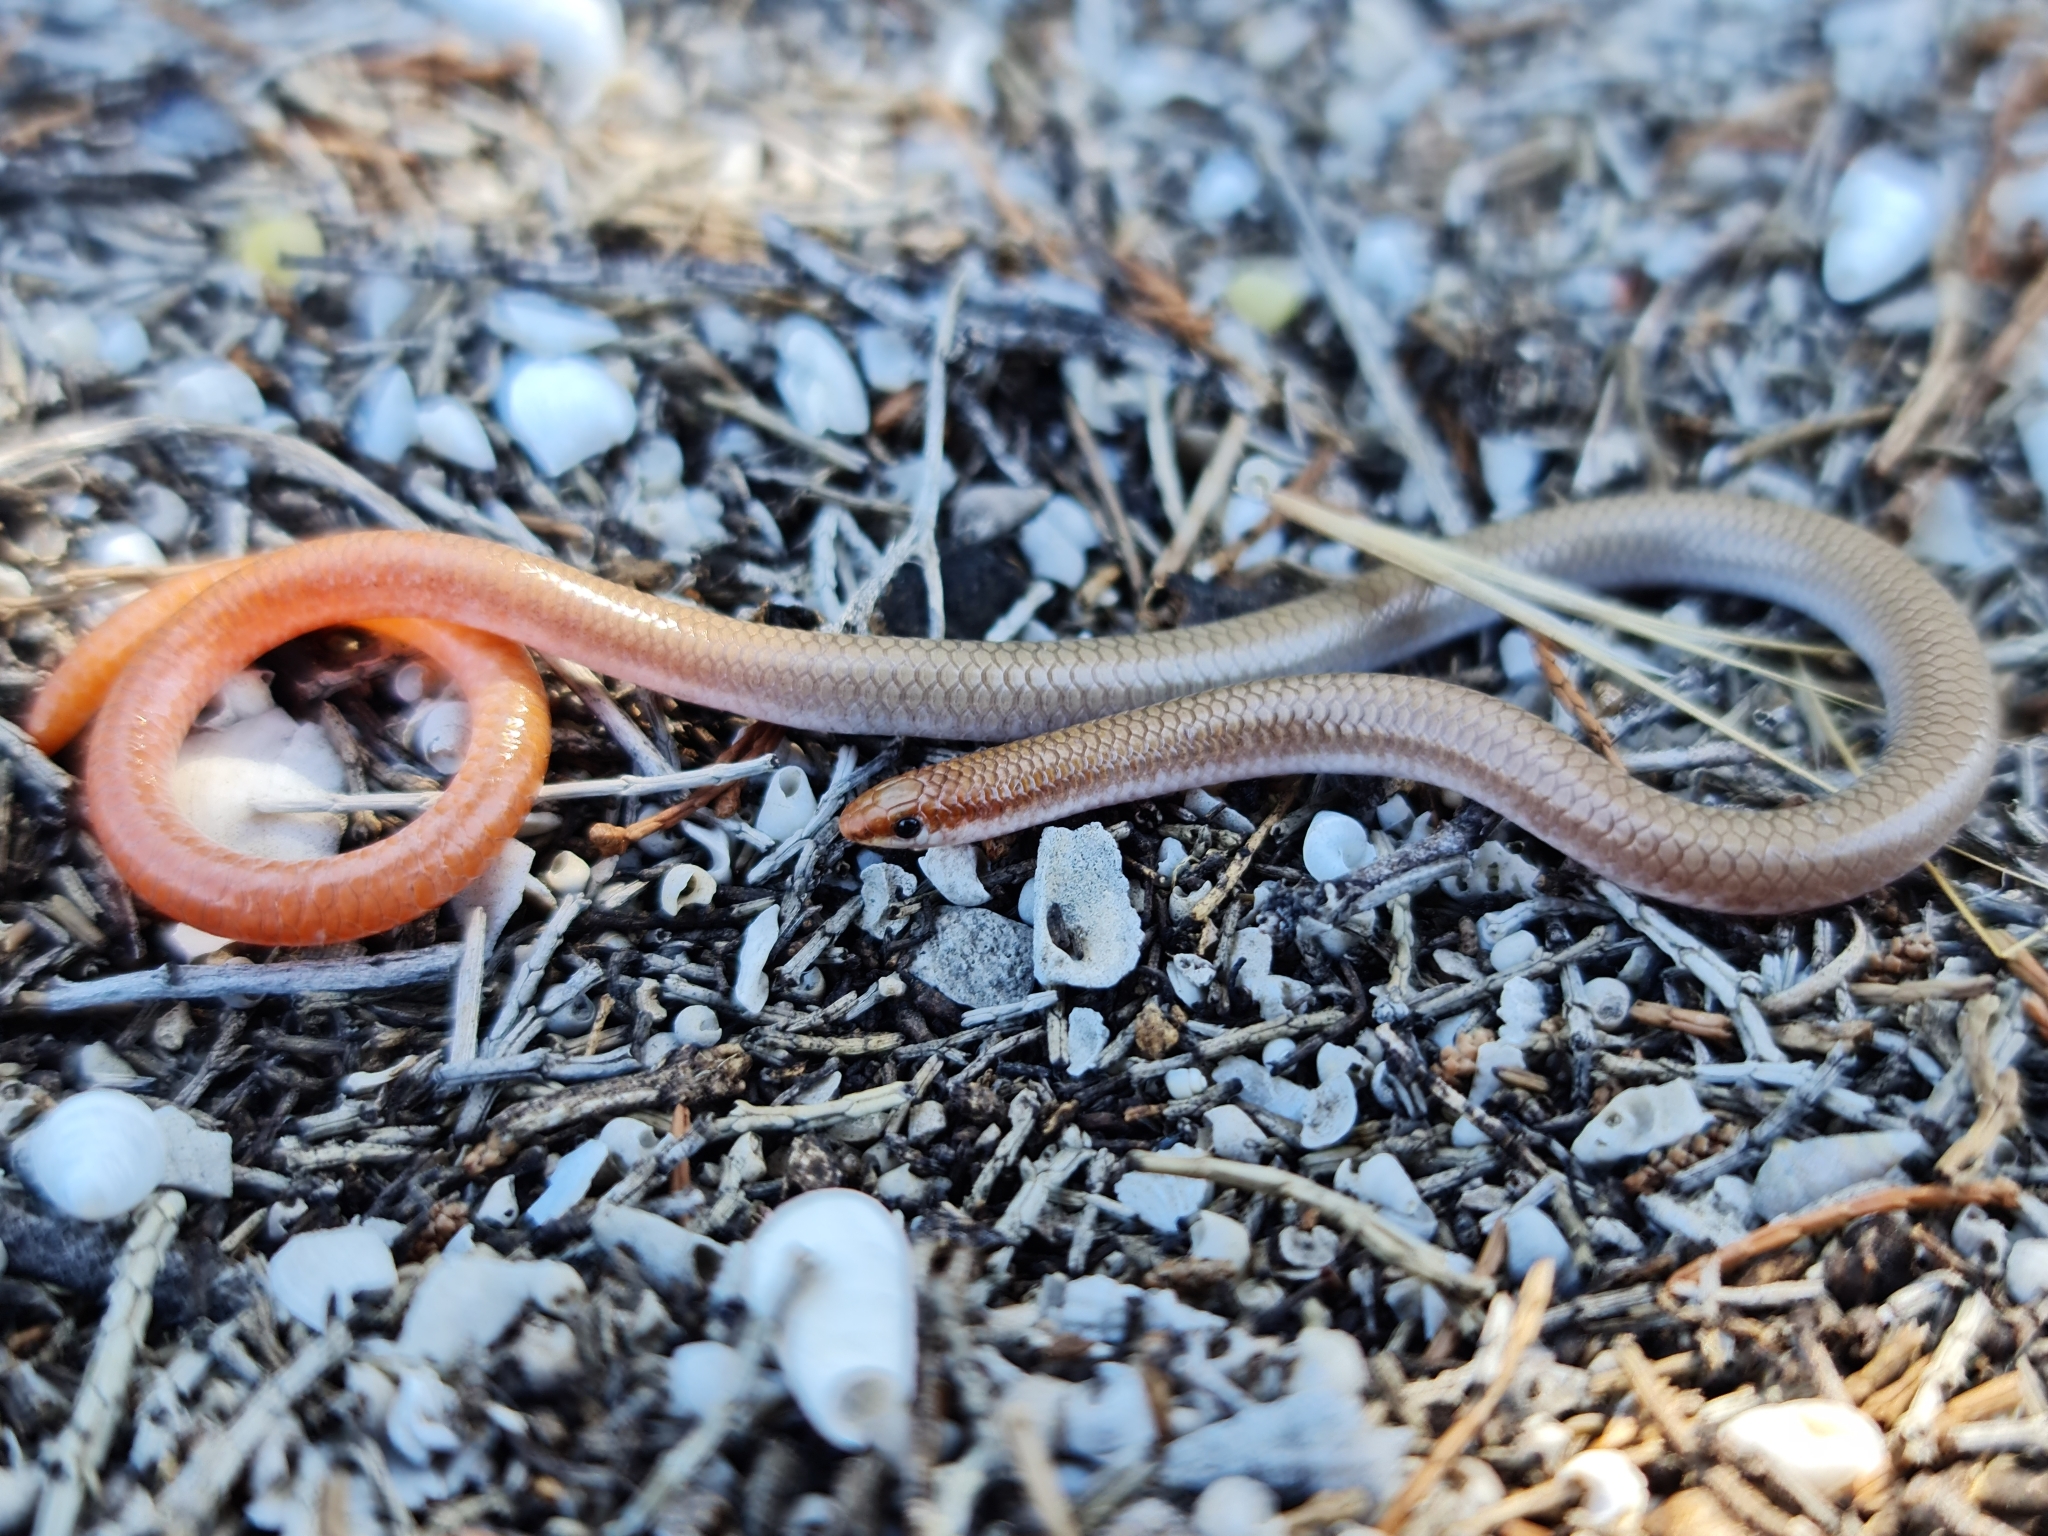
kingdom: Animalia
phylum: Chordata
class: Squamata
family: Pygopodidae
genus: Aprasia
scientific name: Aprasia inaurita
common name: Mallee worm-lizard
